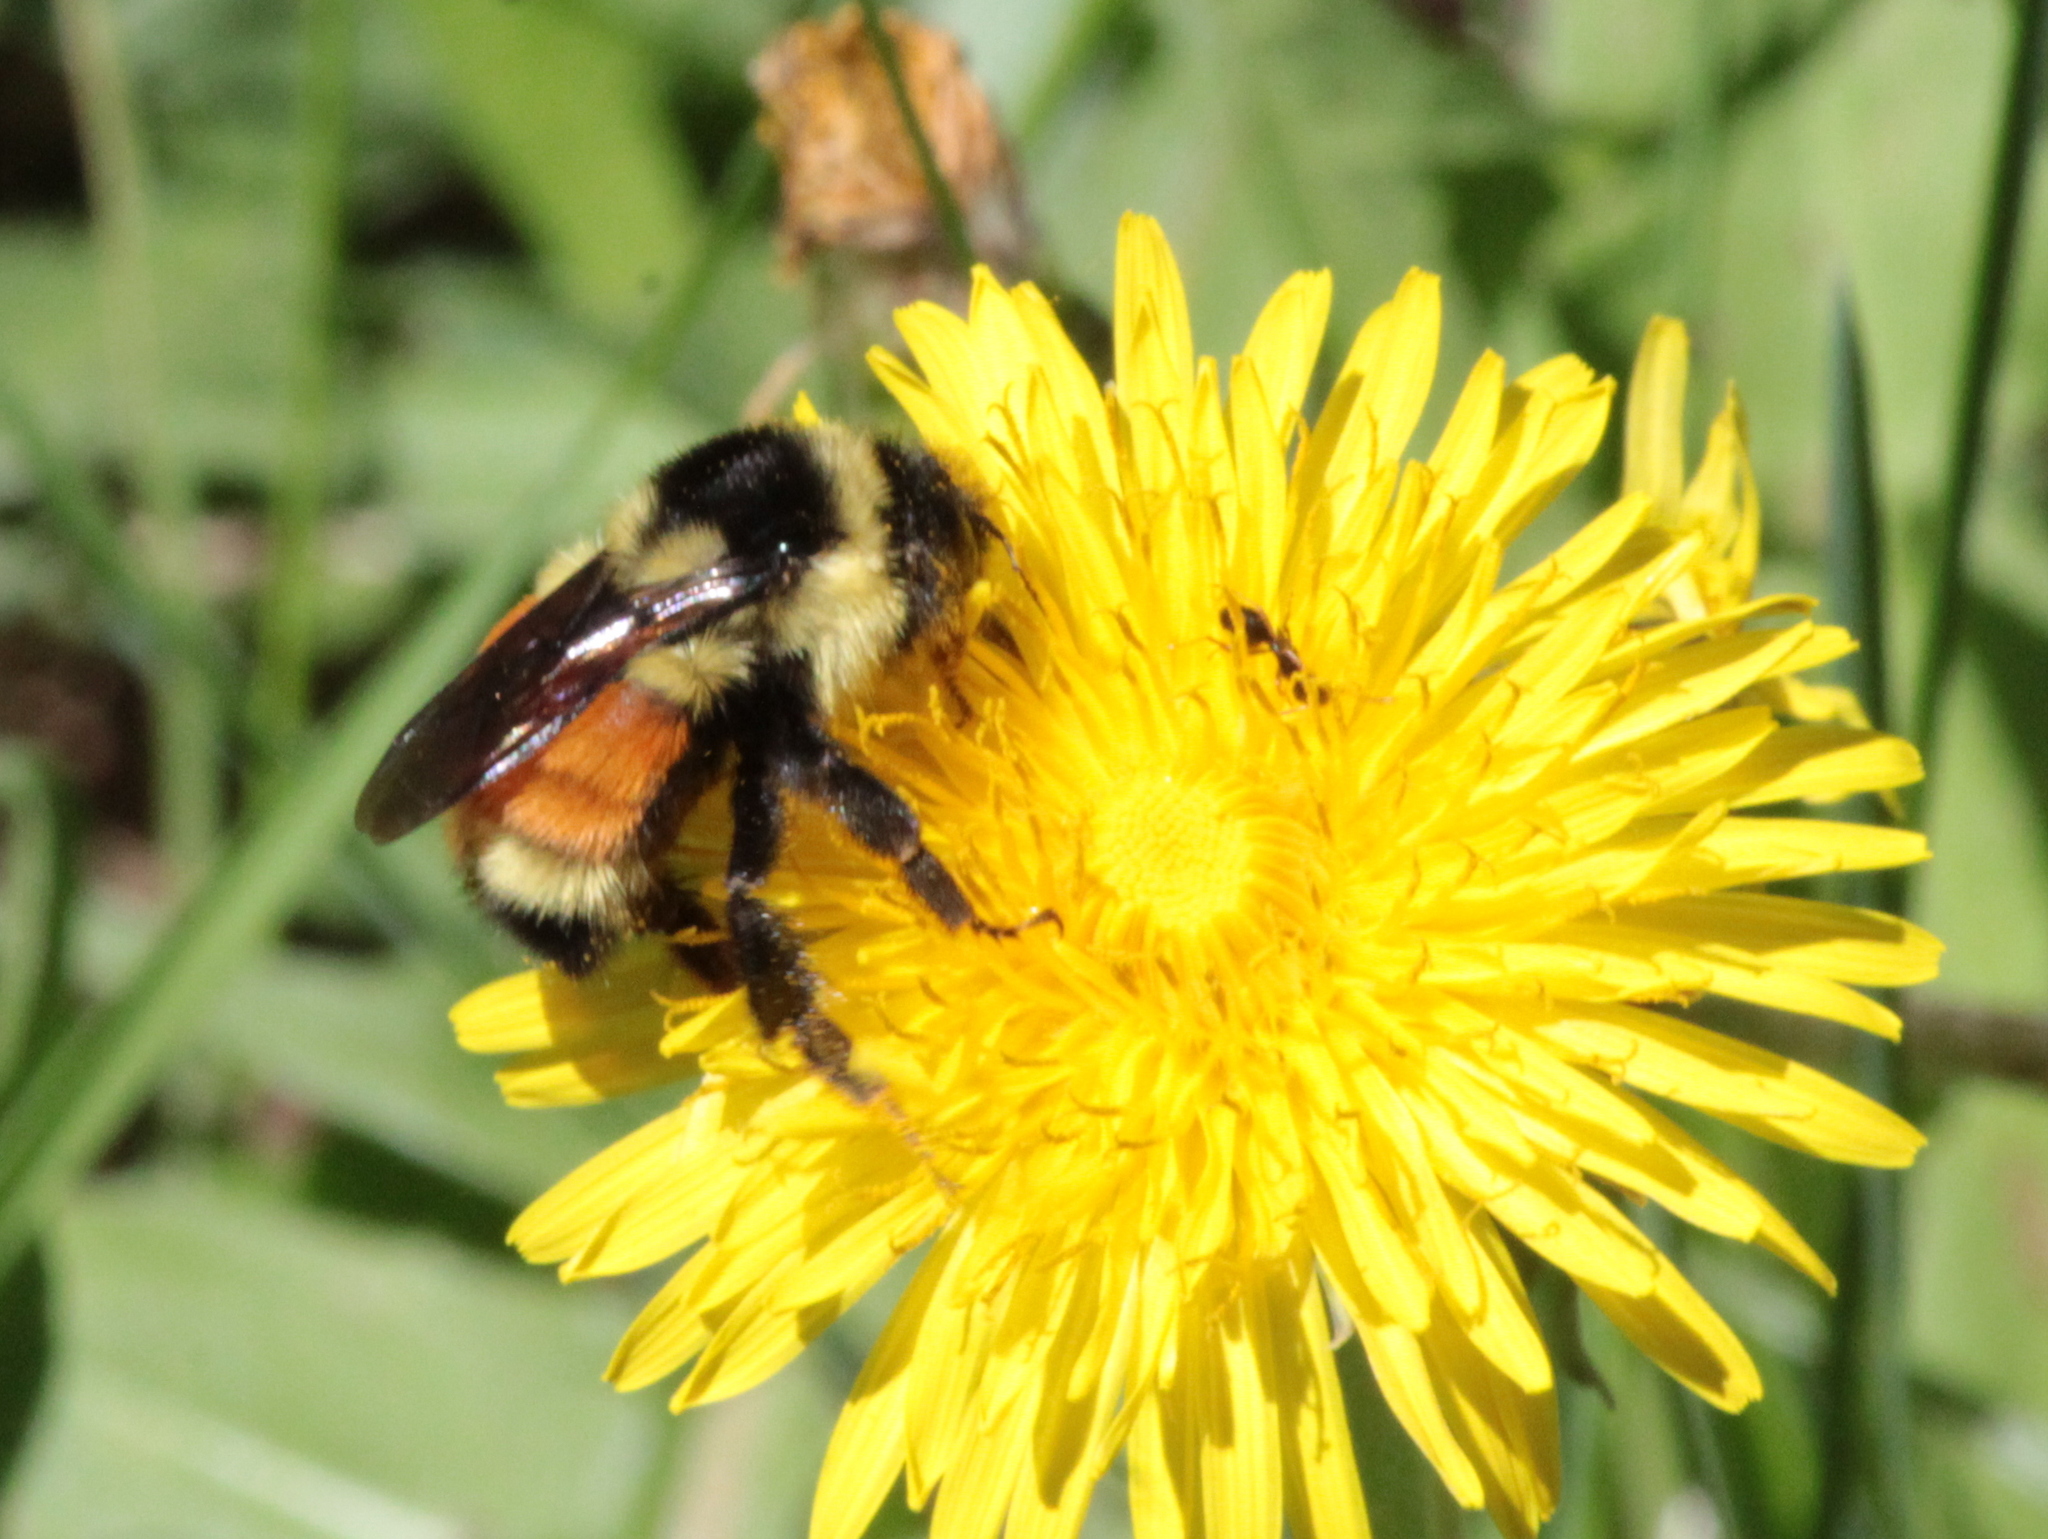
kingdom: Animalia
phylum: Arthropoda
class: Insecta
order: Hymenoptera
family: Apidae
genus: Bombus
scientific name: Bombus ternarius
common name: Tri-colored bumble bee
